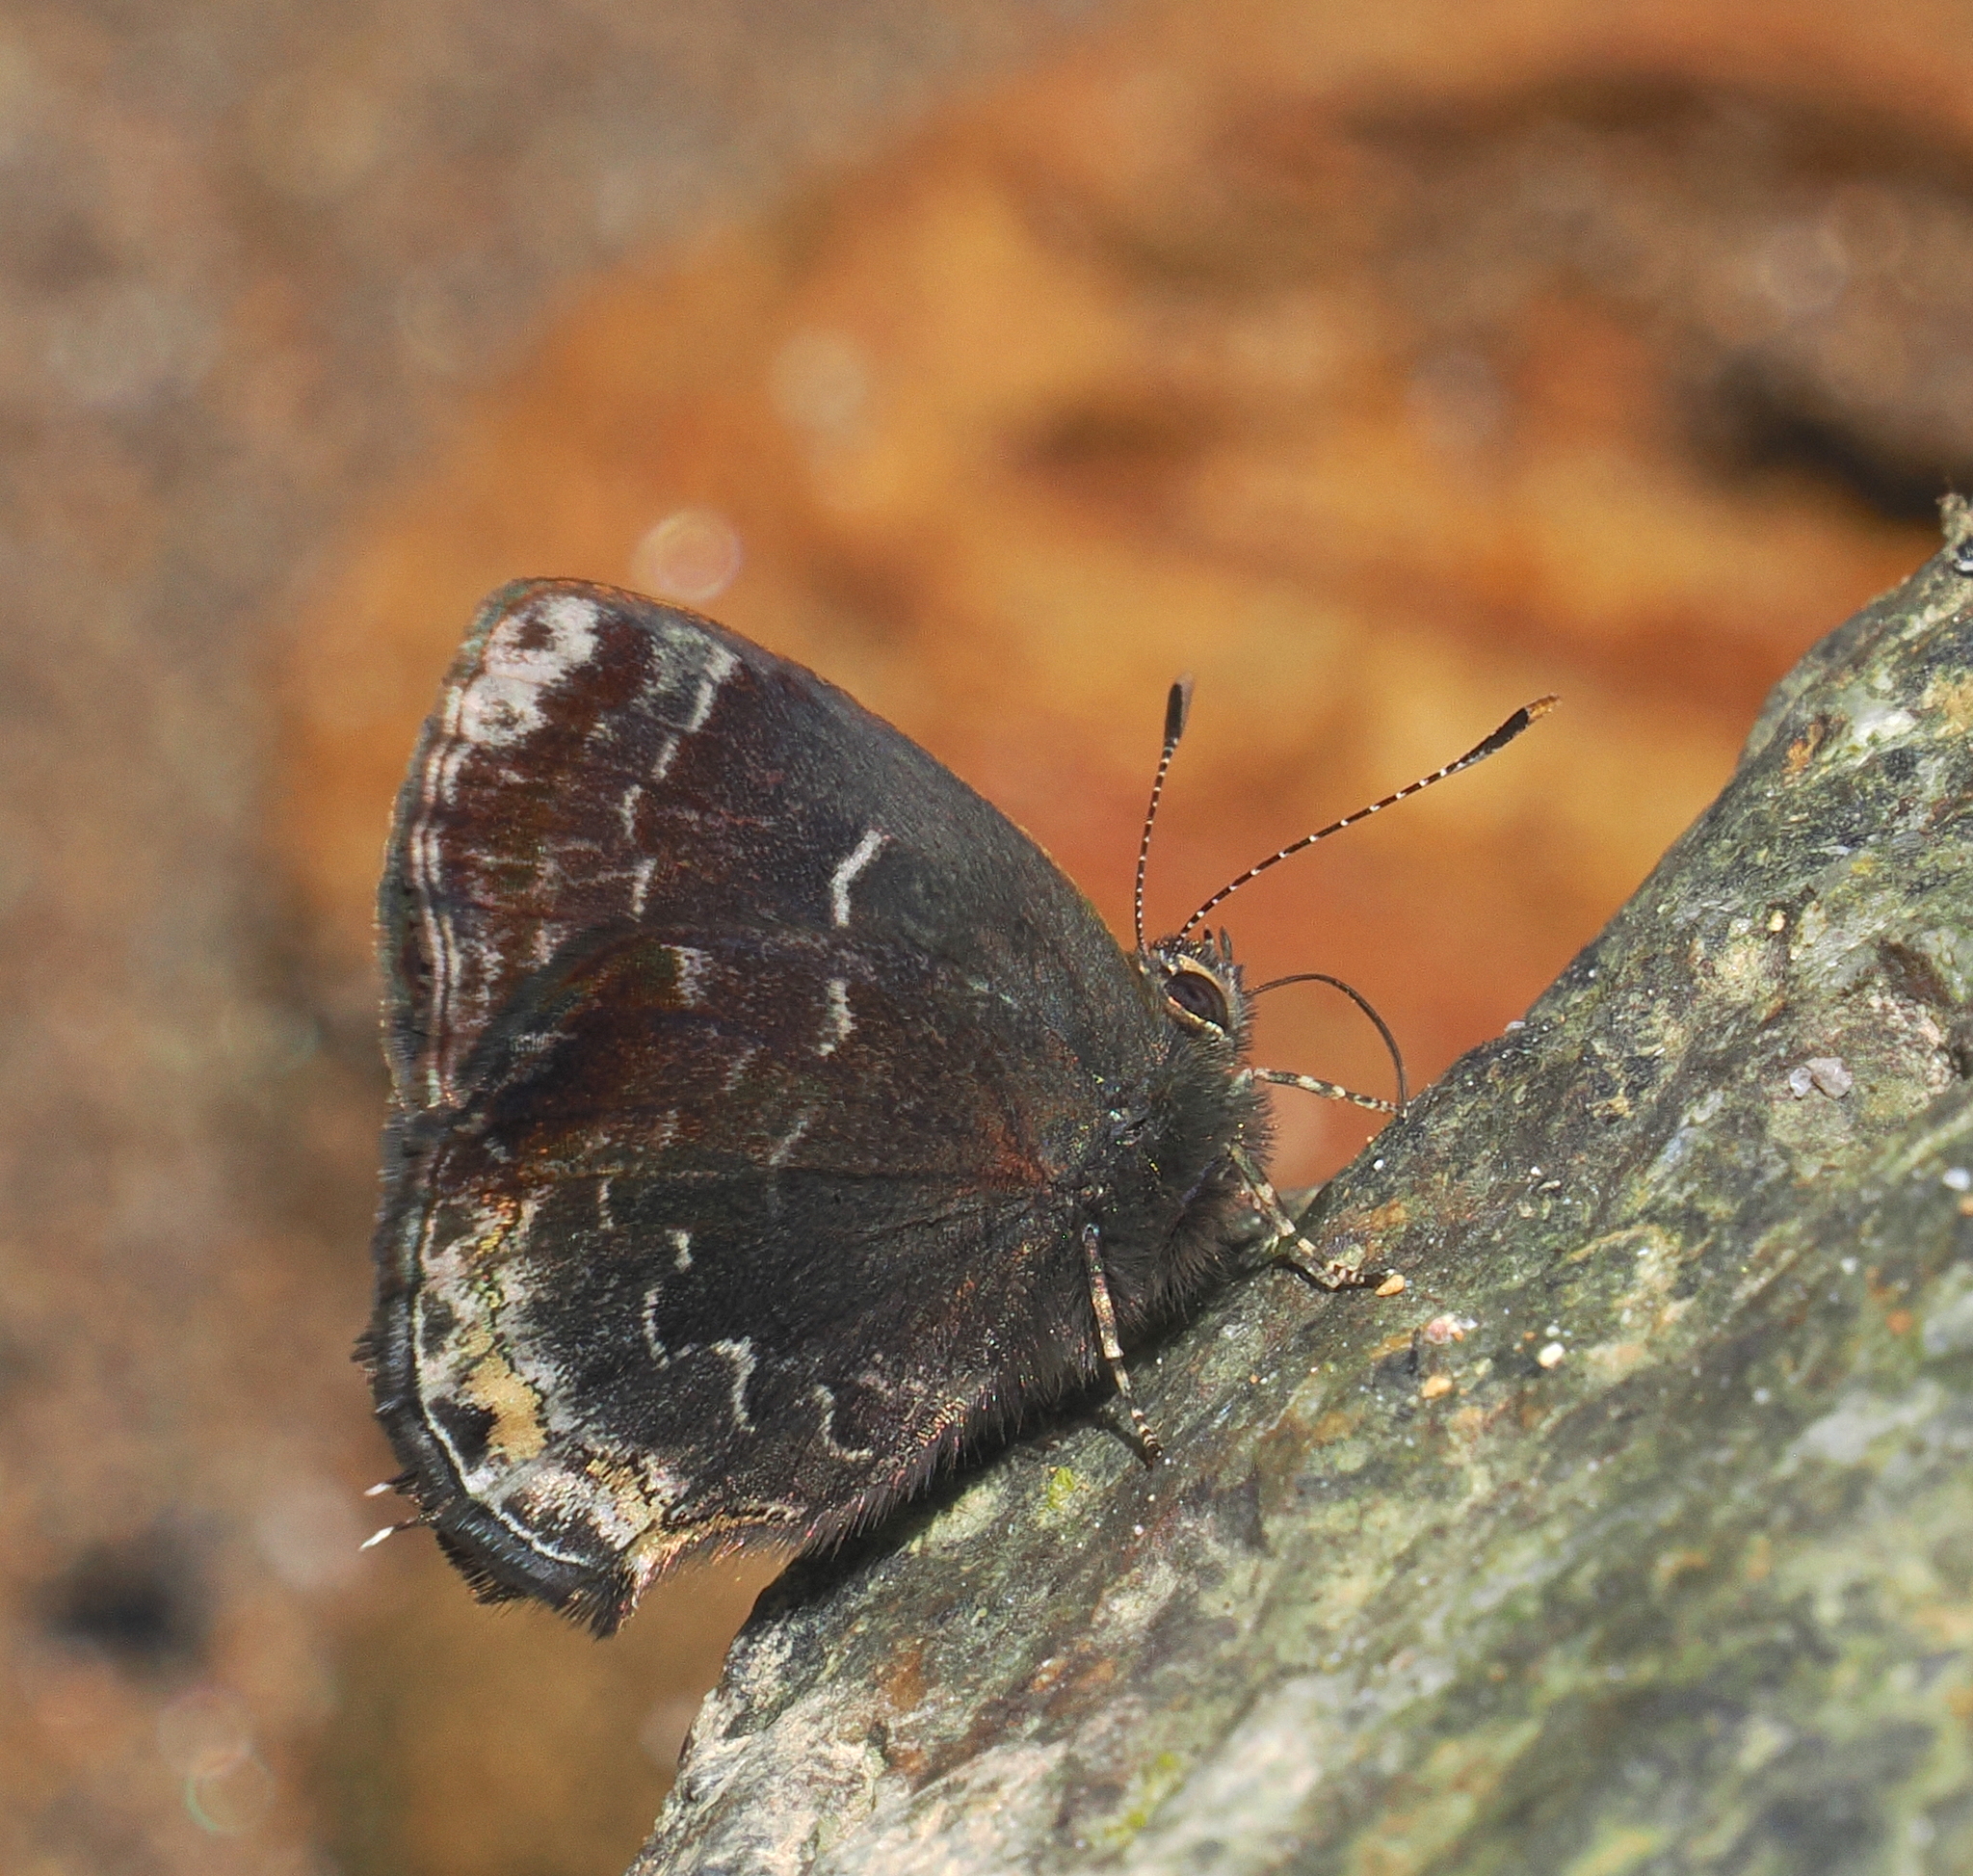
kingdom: Animalia
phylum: Arthropoda
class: Insecta
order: Lepidoptera
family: Lycaenidae
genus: Ocaria
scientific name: Ocaria ocrisia
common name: Black hairstreak
